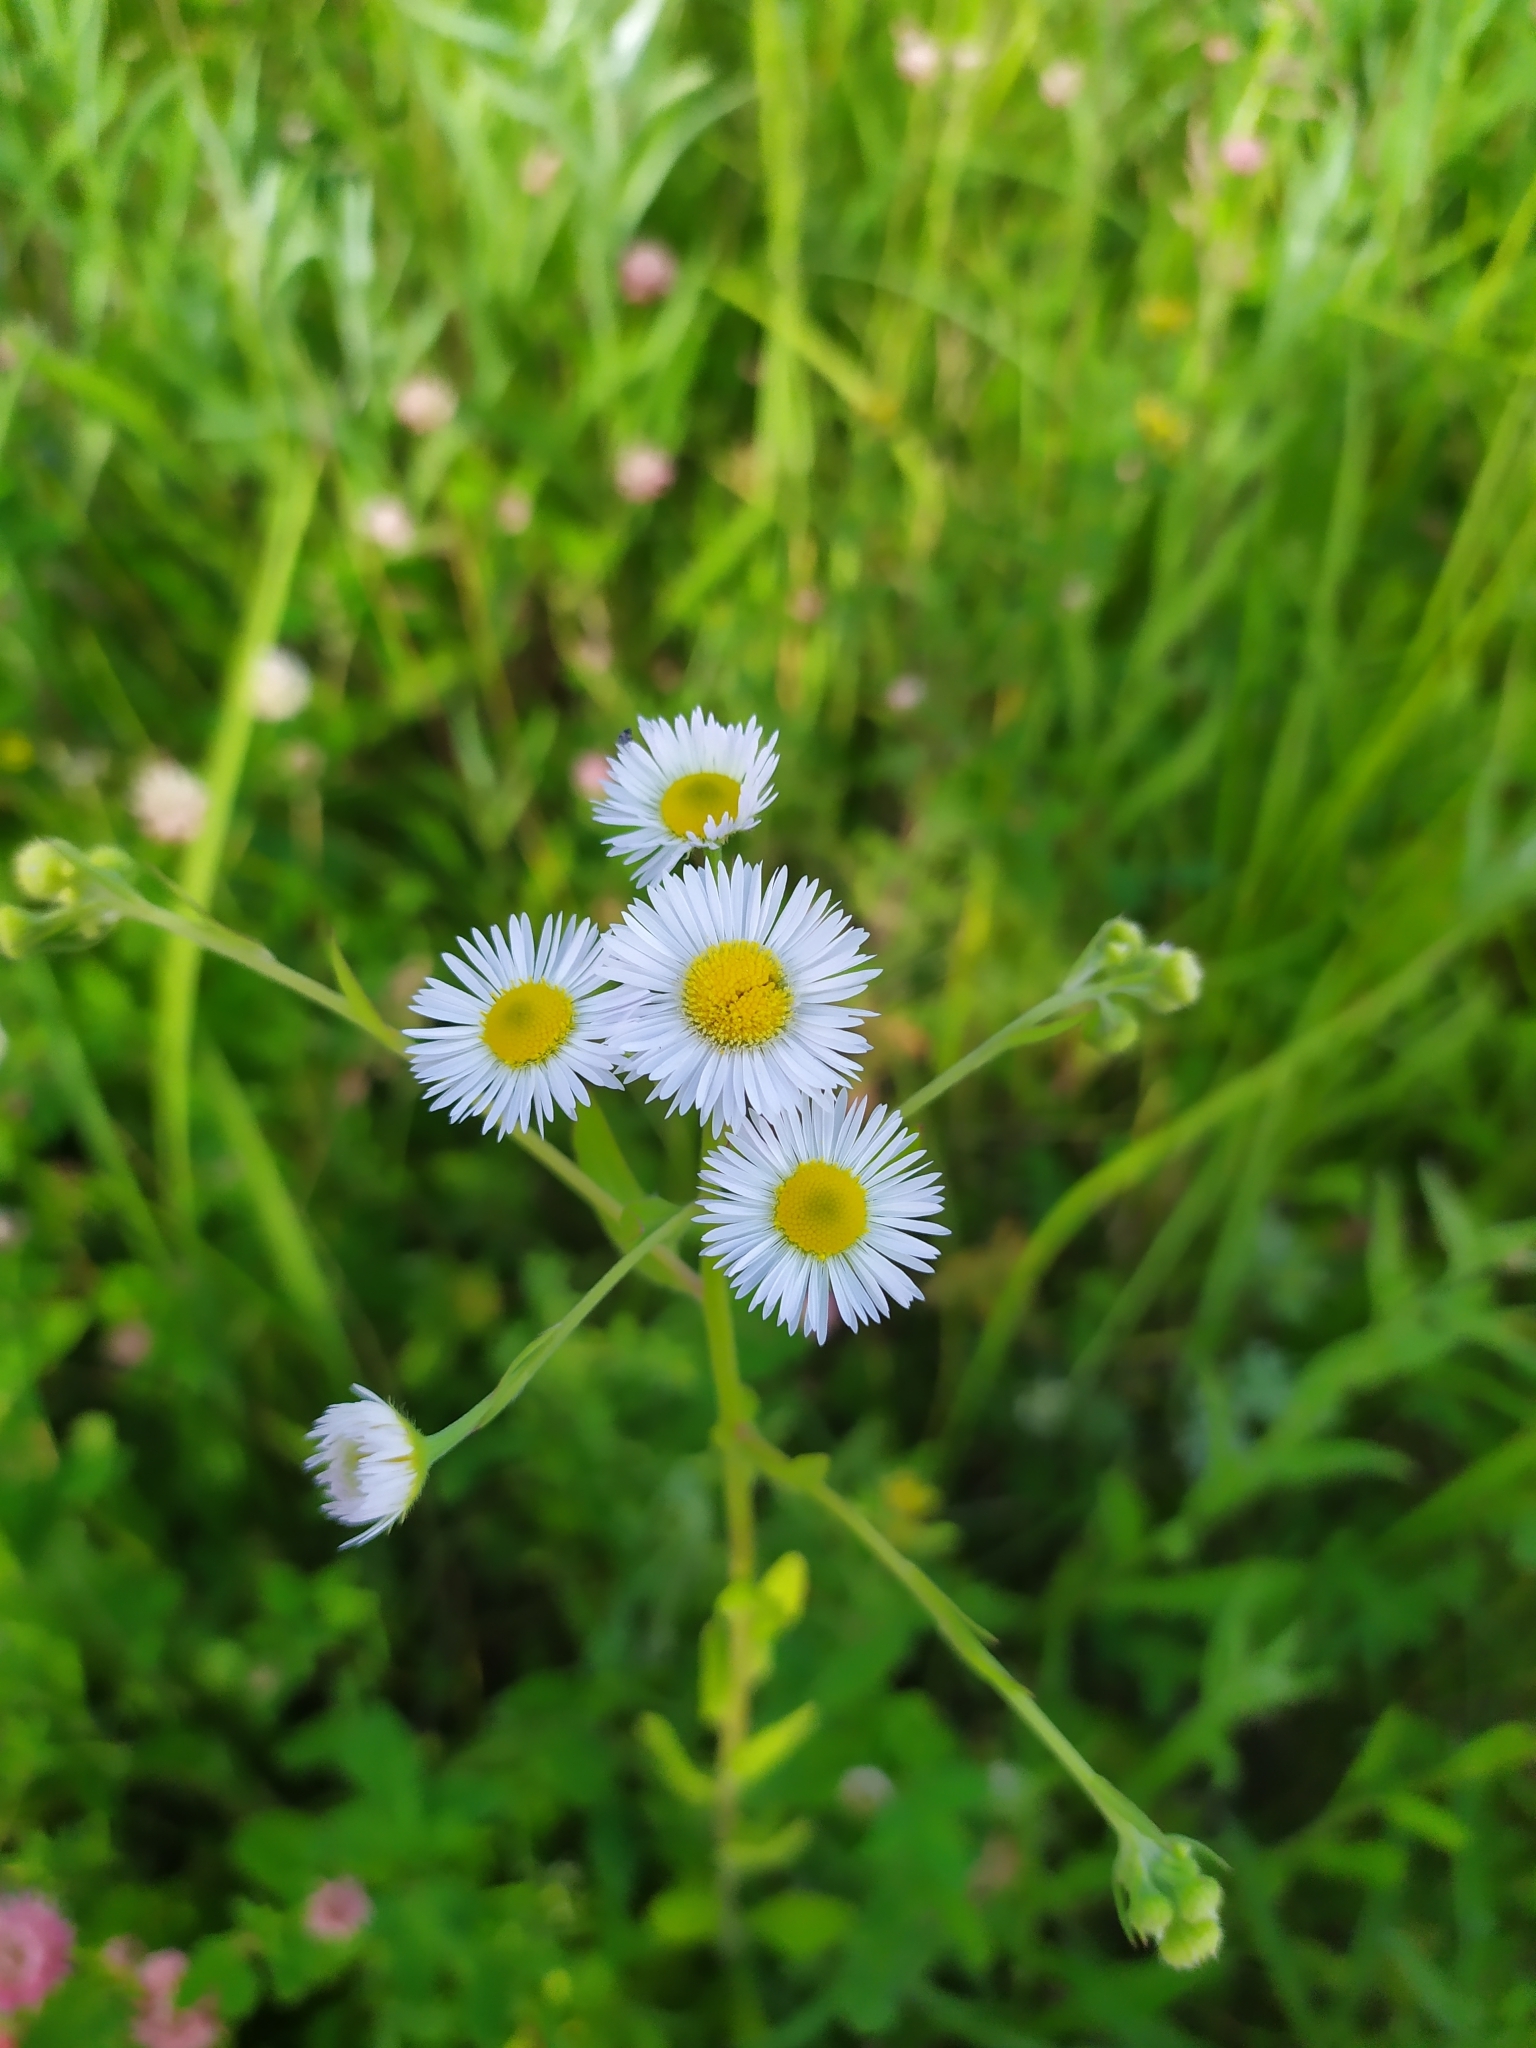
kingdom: Plantae
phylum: Tracheophyta
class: Magnoliopsida
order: Asterales
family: Asteraceae
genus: Erigeron
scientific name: Erigeron annuus
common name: Tall fleabane
